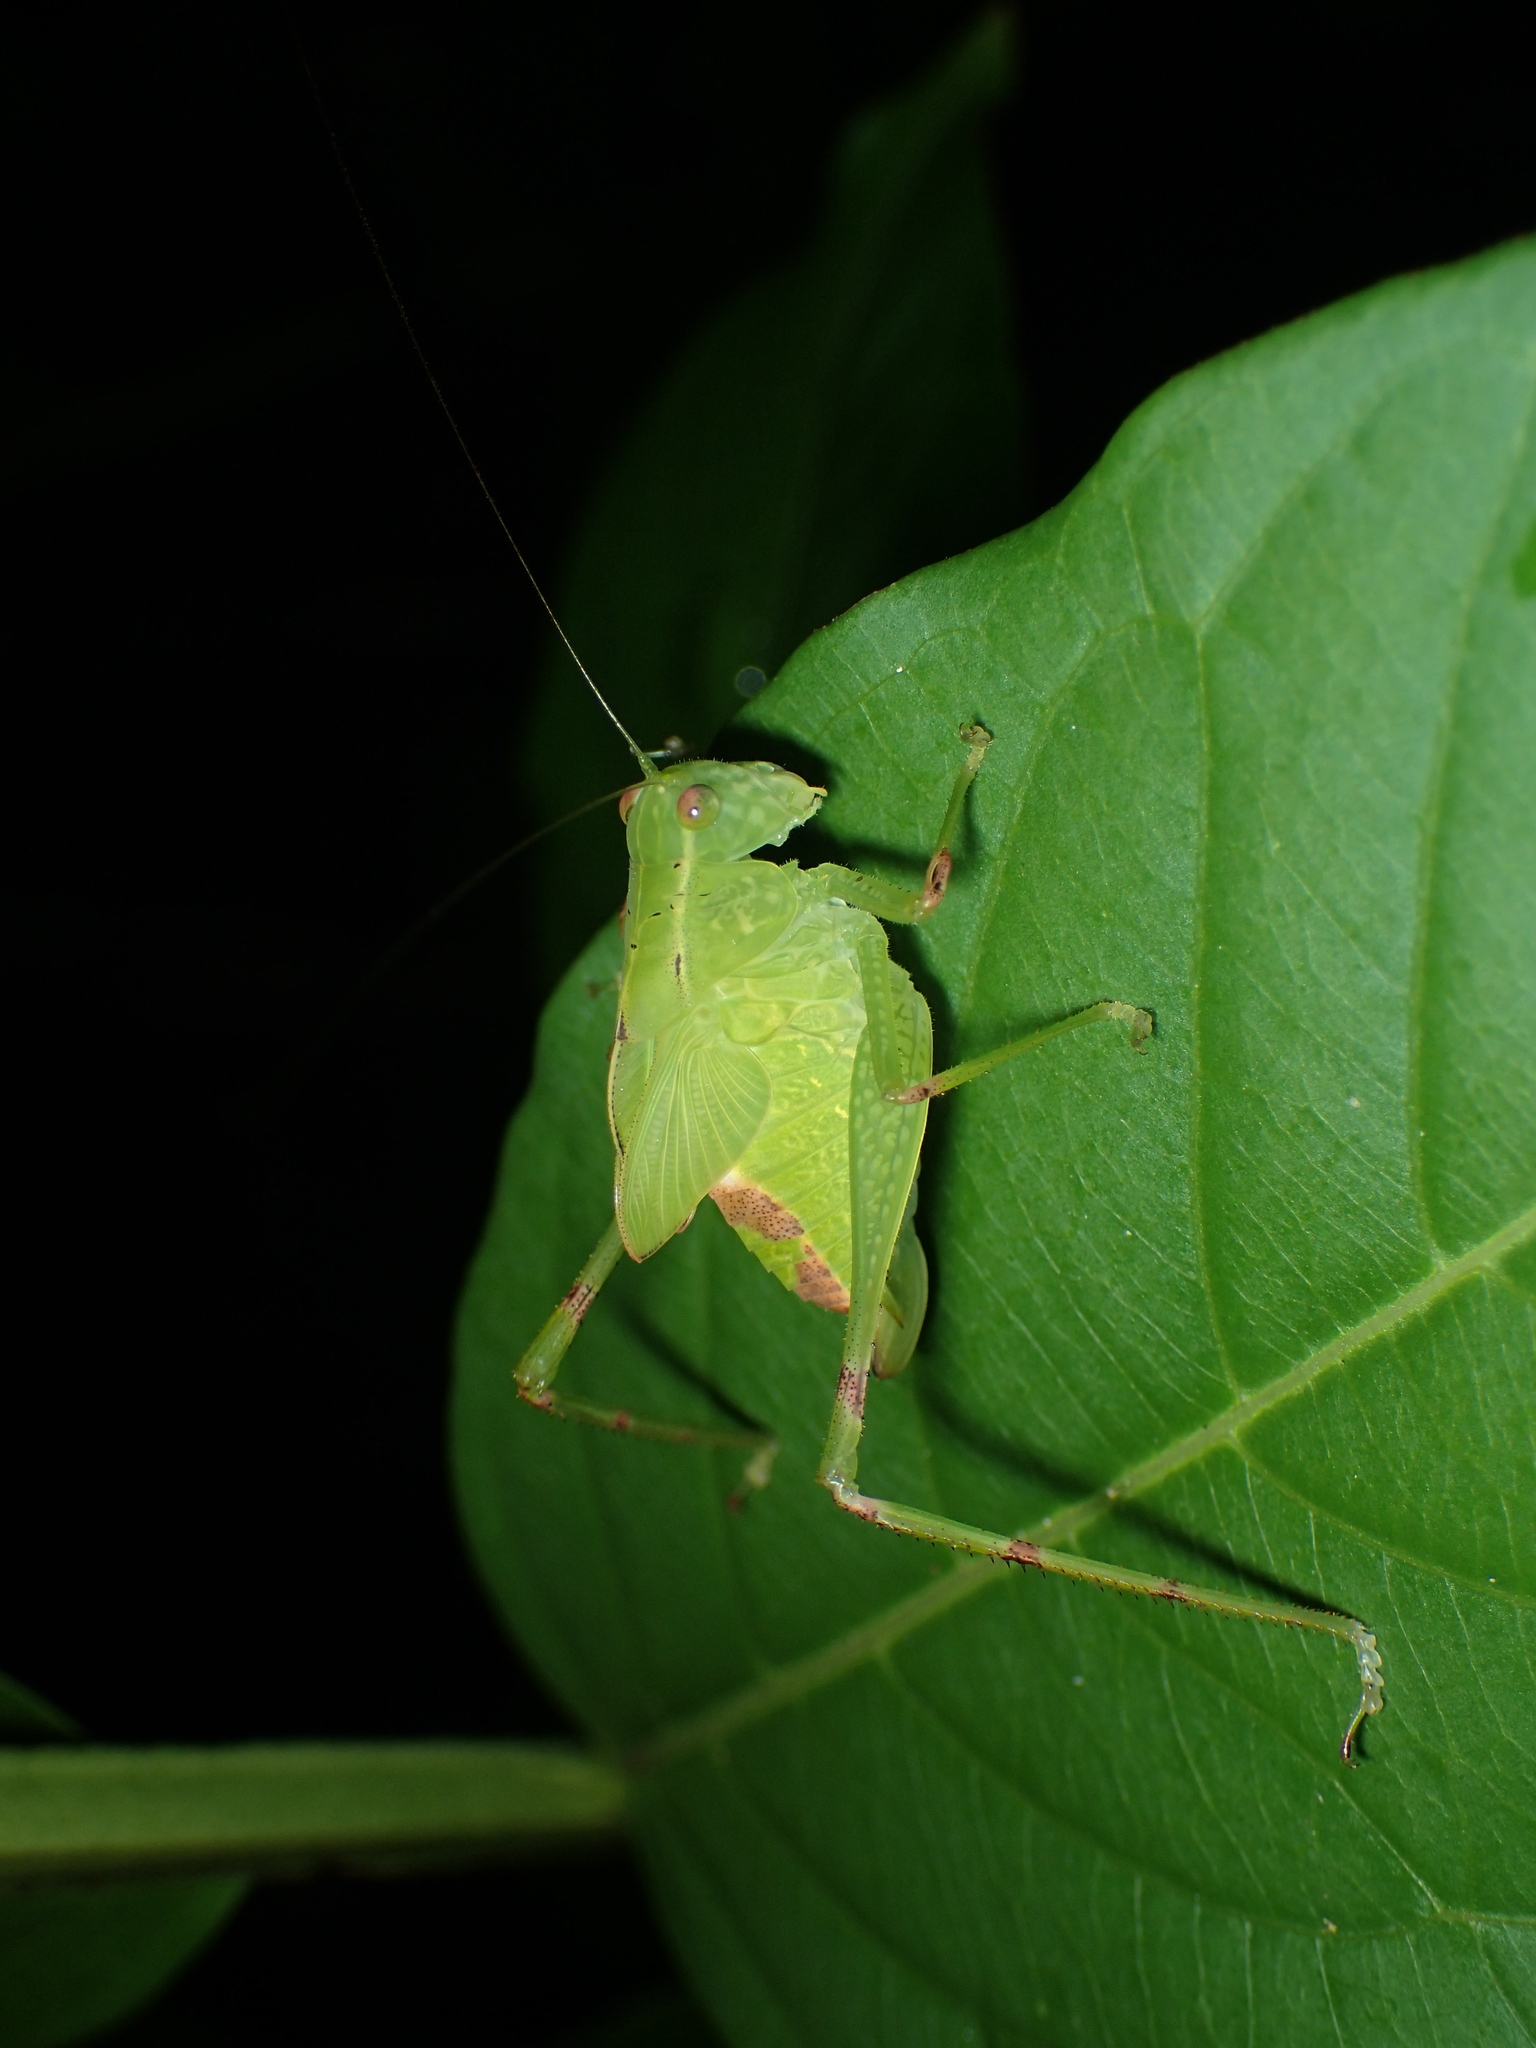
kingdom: Animalia
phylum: Arthropoda
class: Insecta
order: Orthoptera
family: Tettigoniidae
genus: Microcentrum
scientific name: Microcentrum retinerve
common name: Angular-winged katydid
